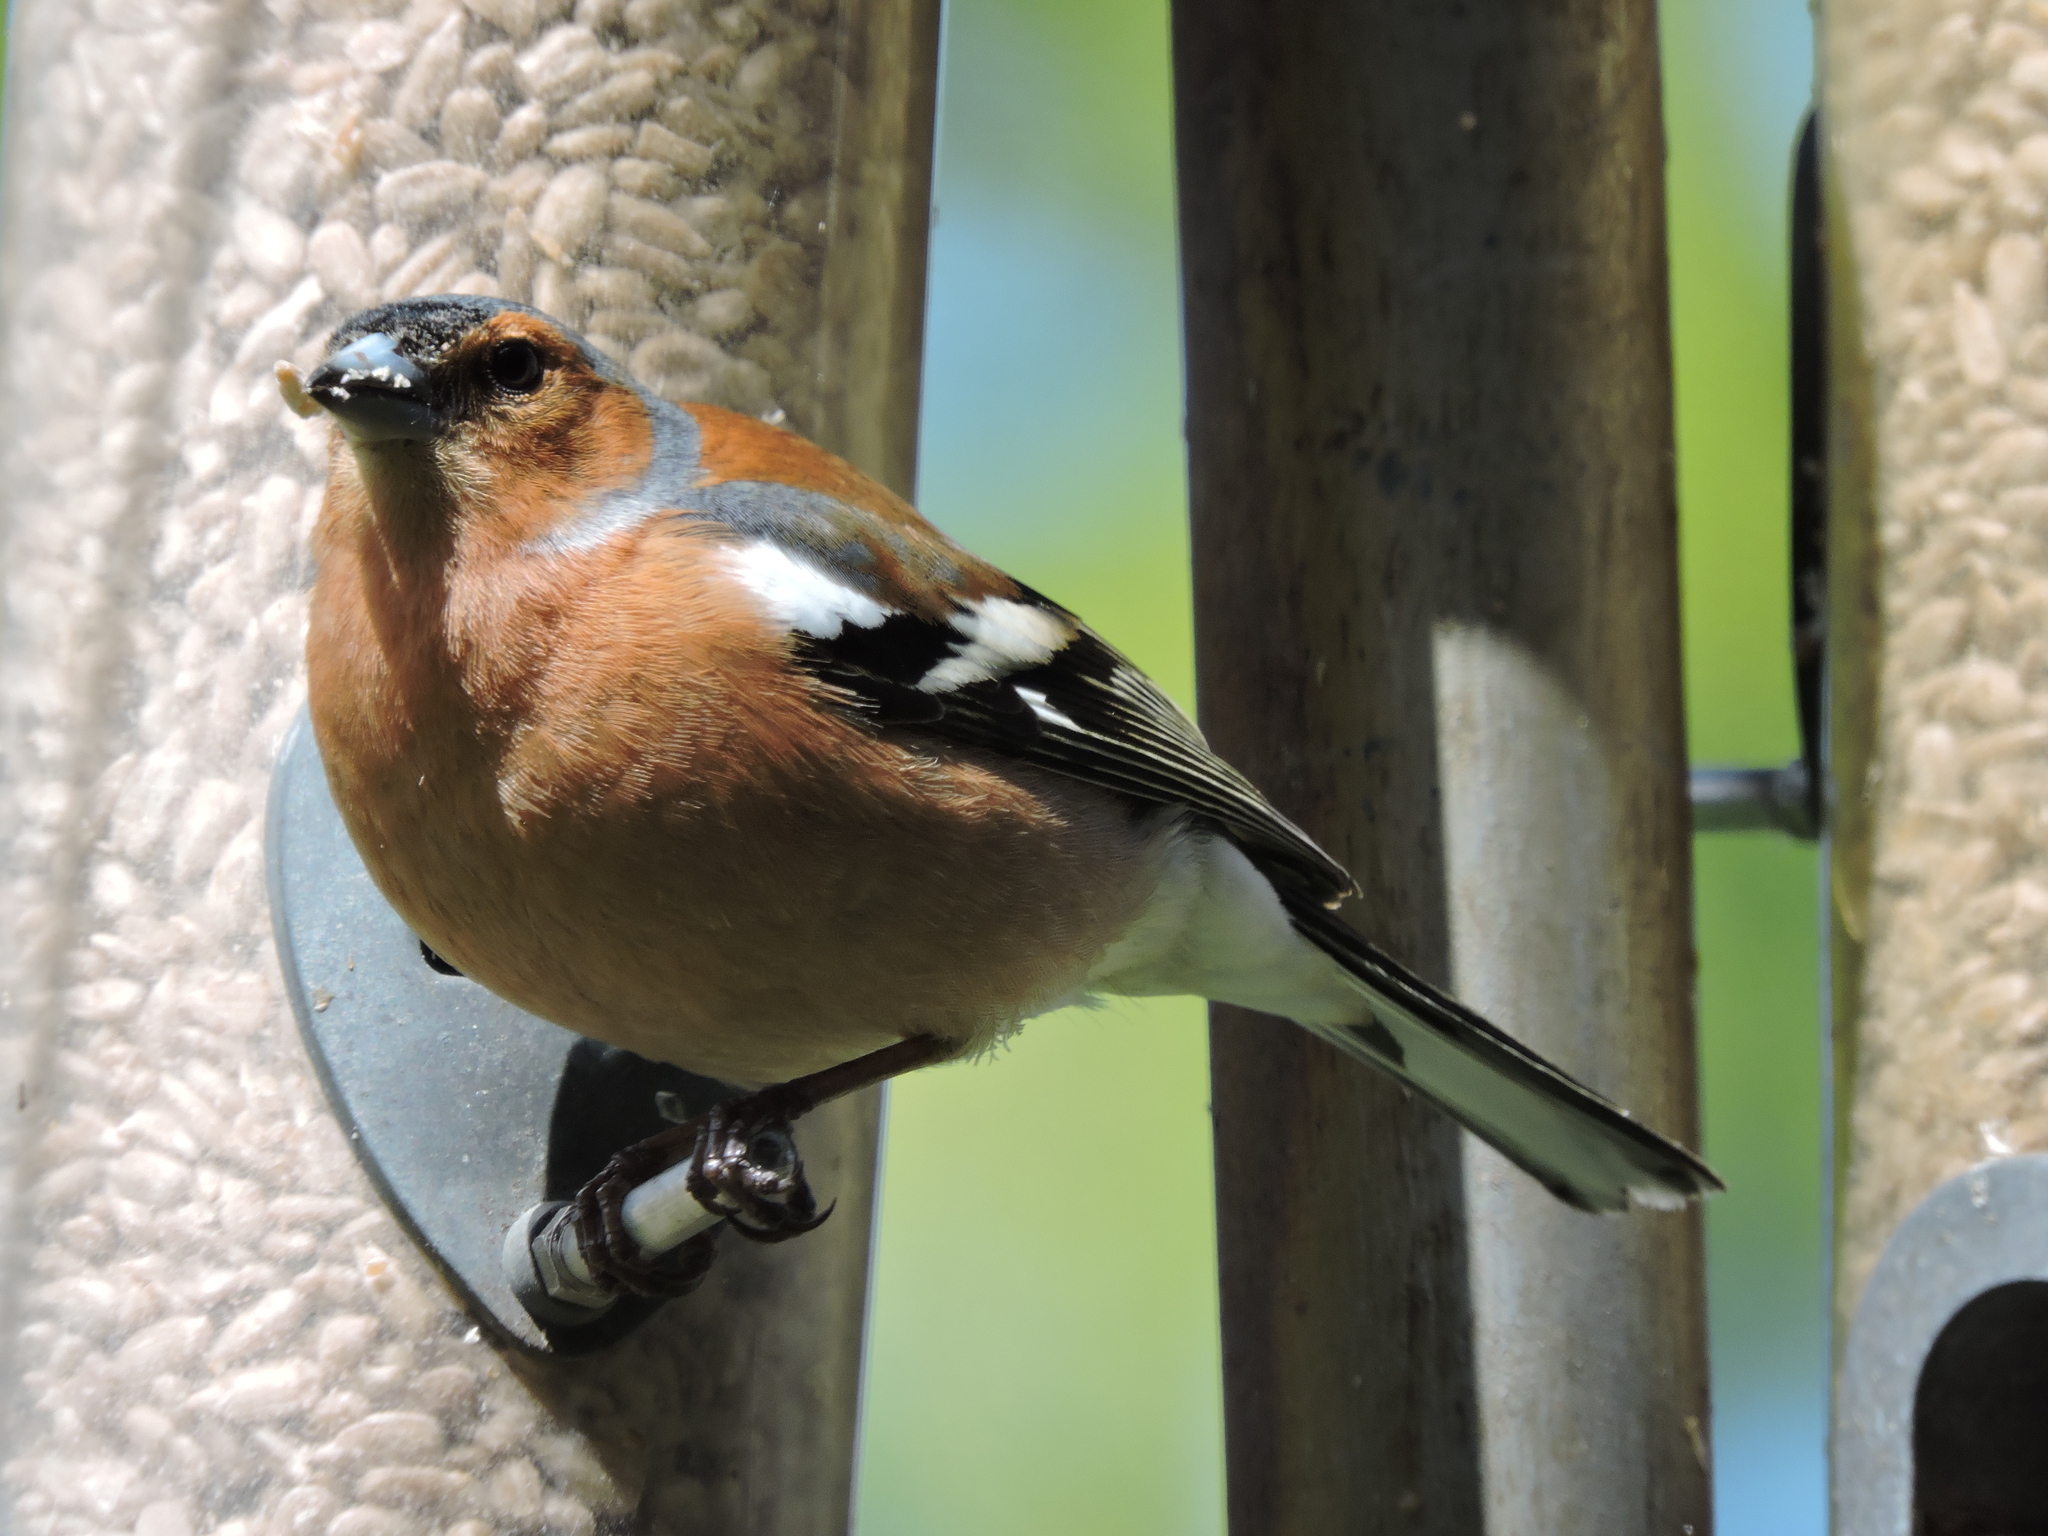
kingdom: Animalia
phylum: Chordata
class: Aves
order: Passeriformes
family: Fringillidae
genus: Fringilla
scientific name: Fringilla coelebs
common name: Common chaffinch
